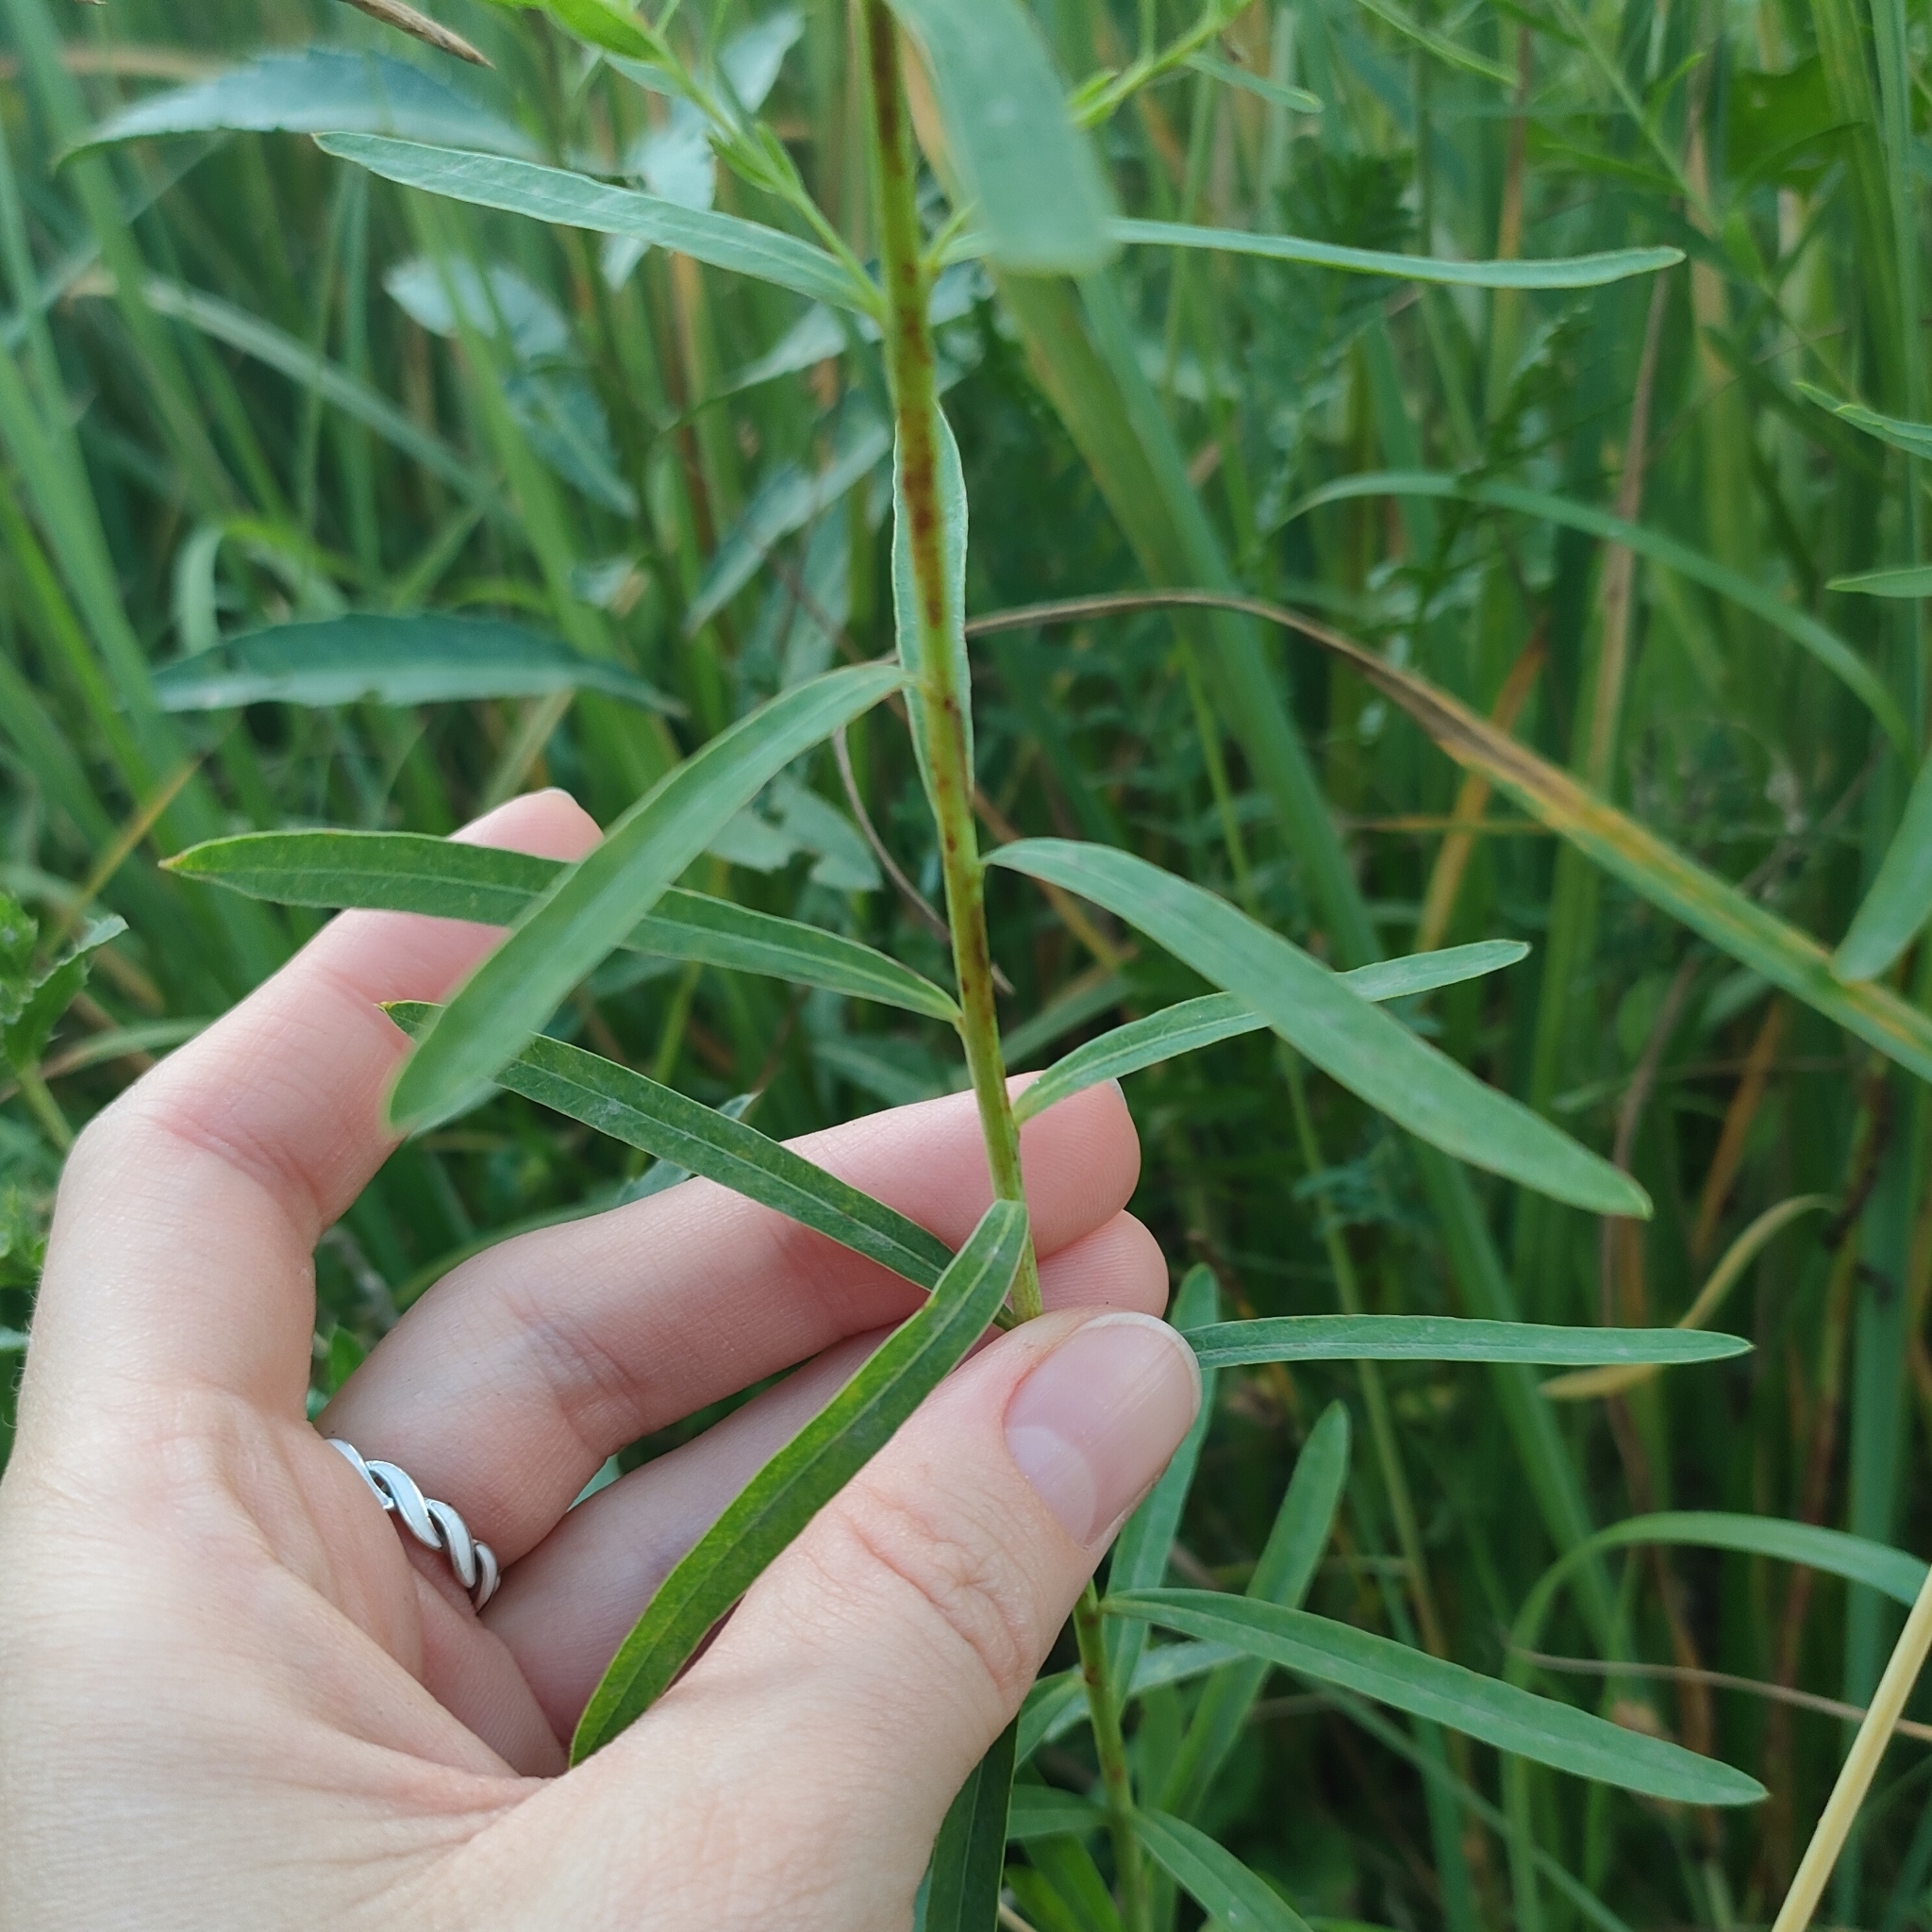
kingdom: Plantae
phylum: Tracheophyta
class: Magnoliopsida
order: Malpighiales
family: Euphorbiaceae
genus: Euphorbia
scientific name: Euphorbia virgata
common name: Leafy spurge
